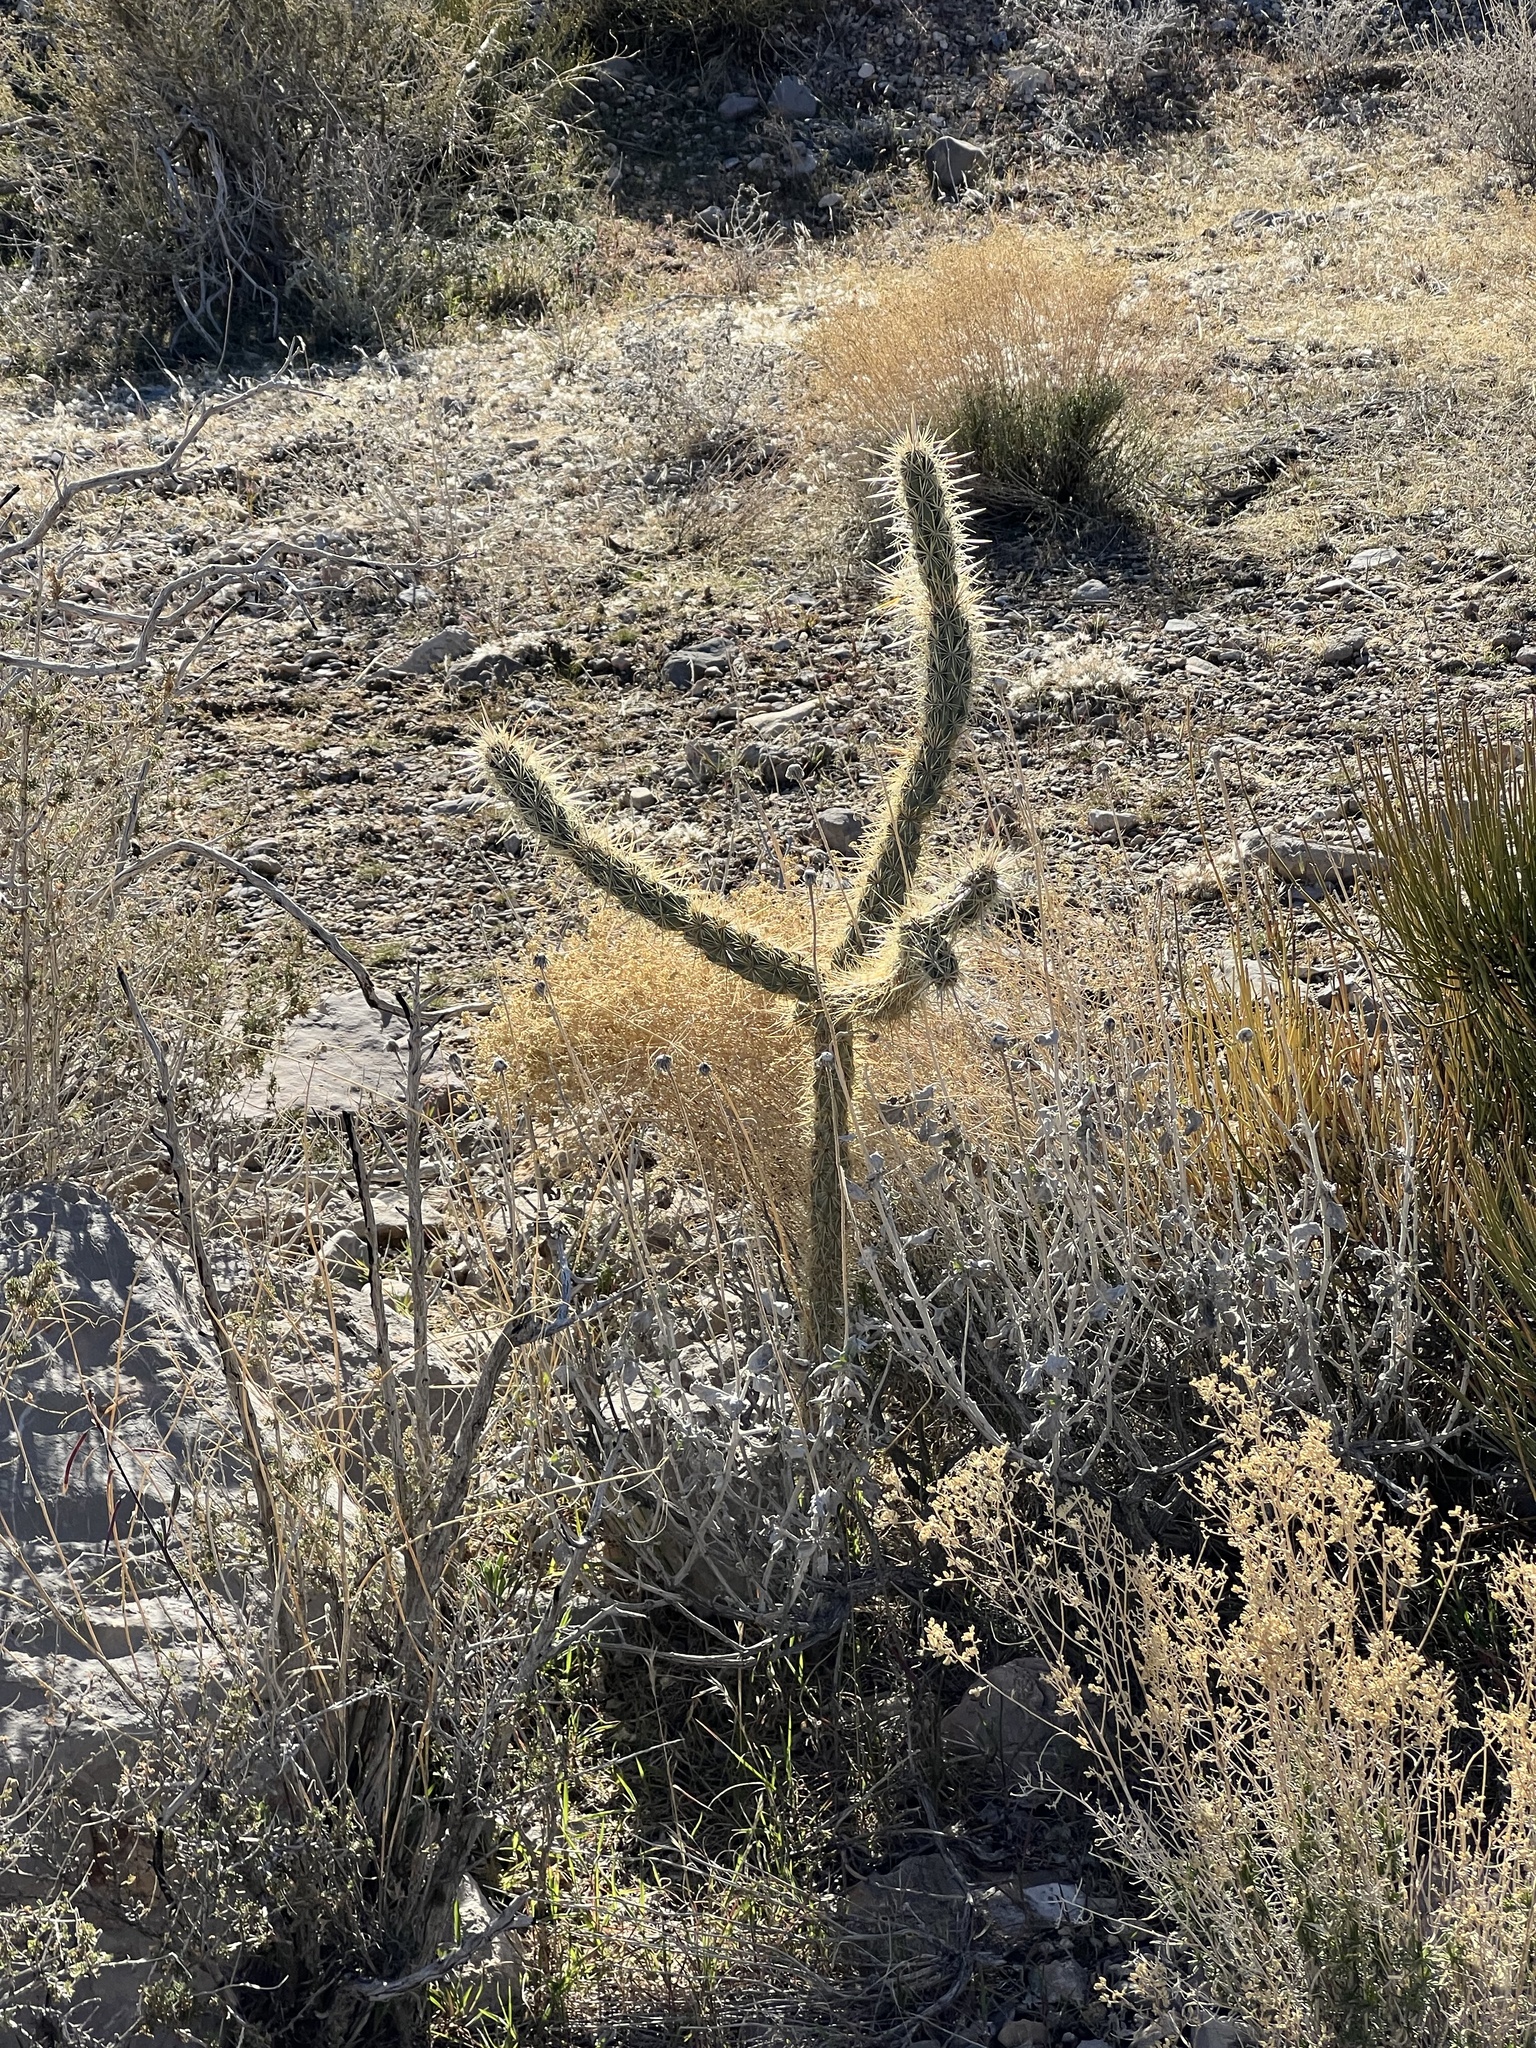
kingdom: Plantae
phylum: Tracheophyta
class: Magnoliopsida
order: Caryophyllales
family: Cactaceae
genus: Cylindropuntia
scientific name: Cylindropuntia acanthocarpa
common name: Buckhorn cholla
